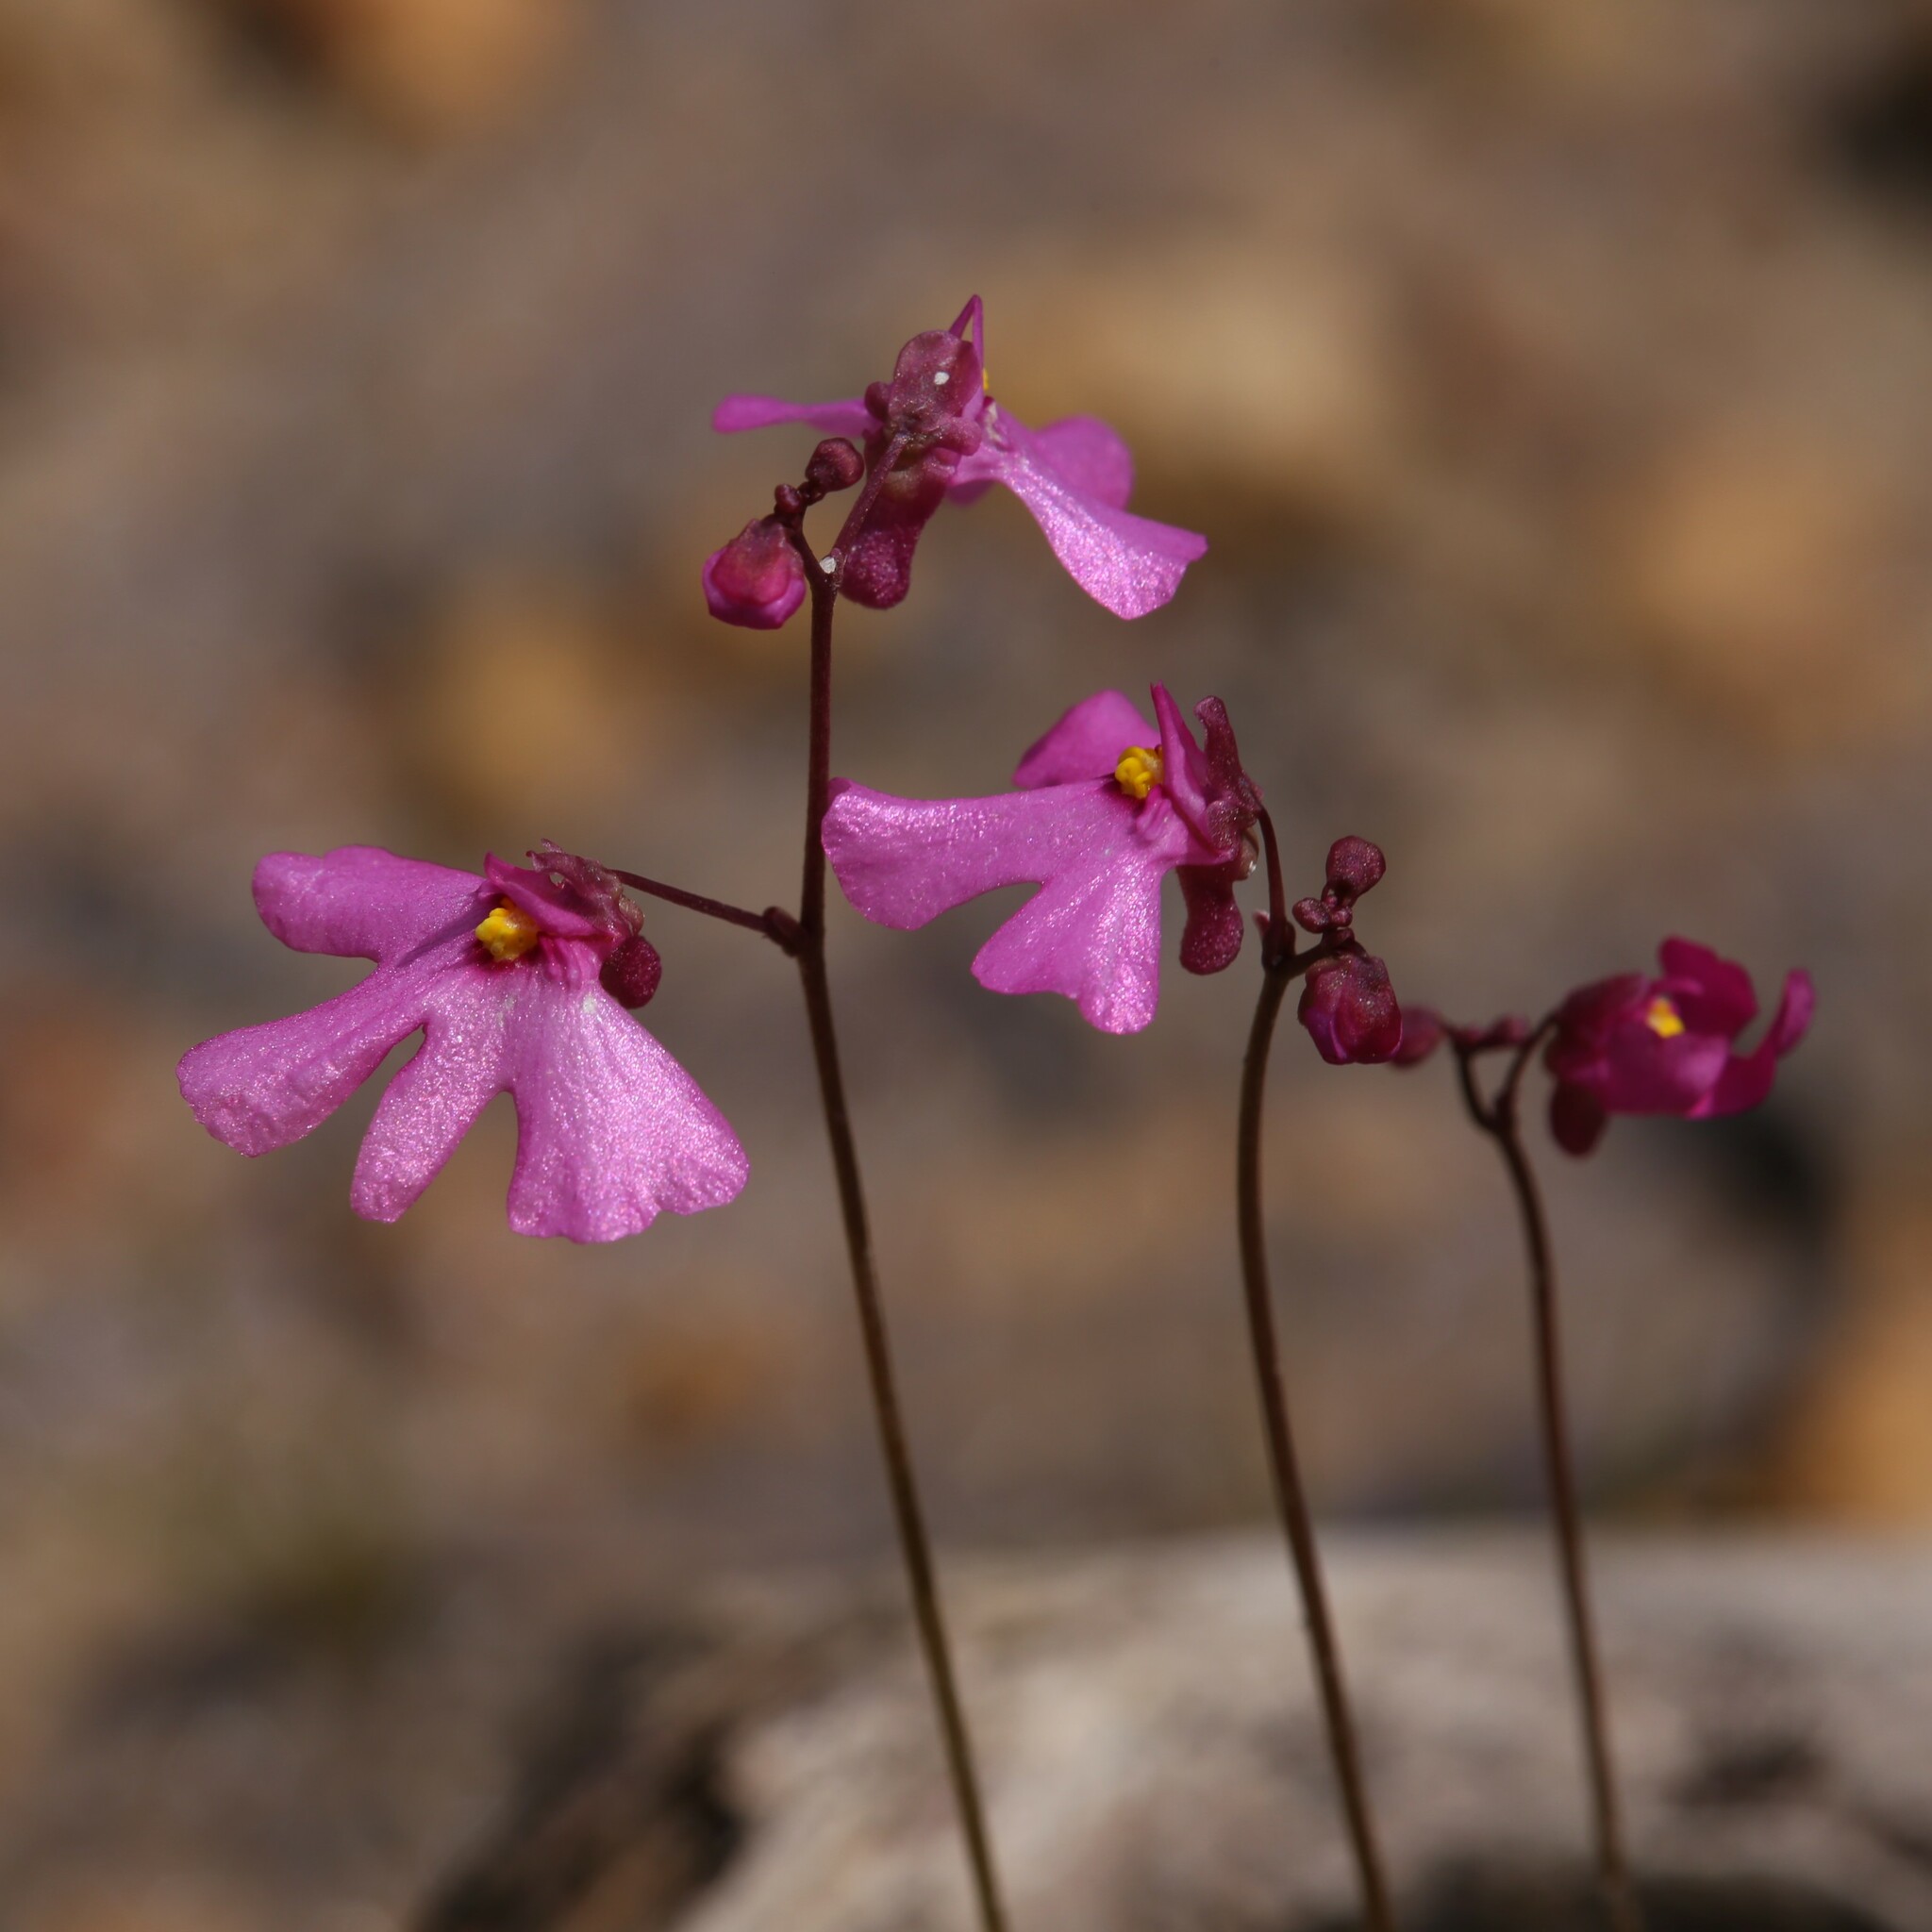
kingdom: Plantae
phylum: Tracheophyta
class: Magnoliopsida
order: Lamiales
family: Lentibulariaceae
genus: Utricularia
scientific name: Utricularia multifida
